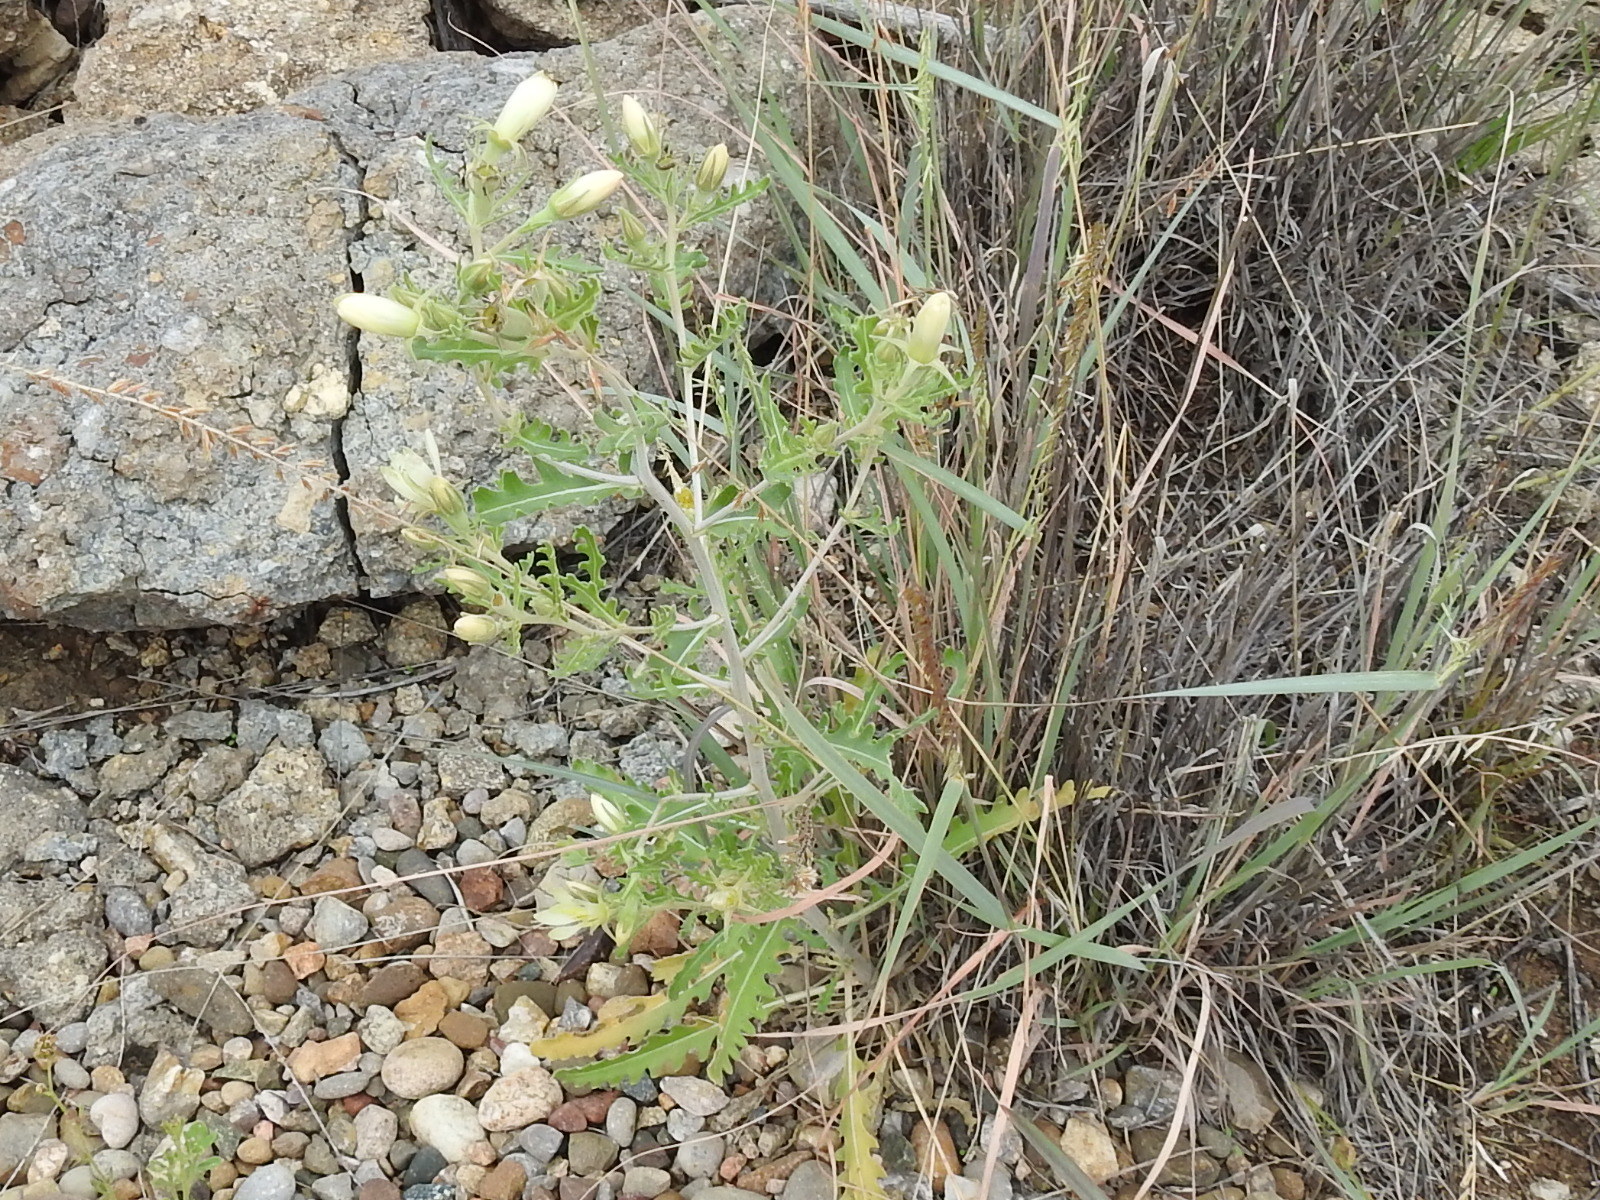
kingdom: Plantae
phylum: Tracheophyta
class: Magnoliopsida
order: Cornales
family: Loasaceae
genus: Mentzelia
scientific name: Mentzelia multiflora
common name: Adonis blazingstar
